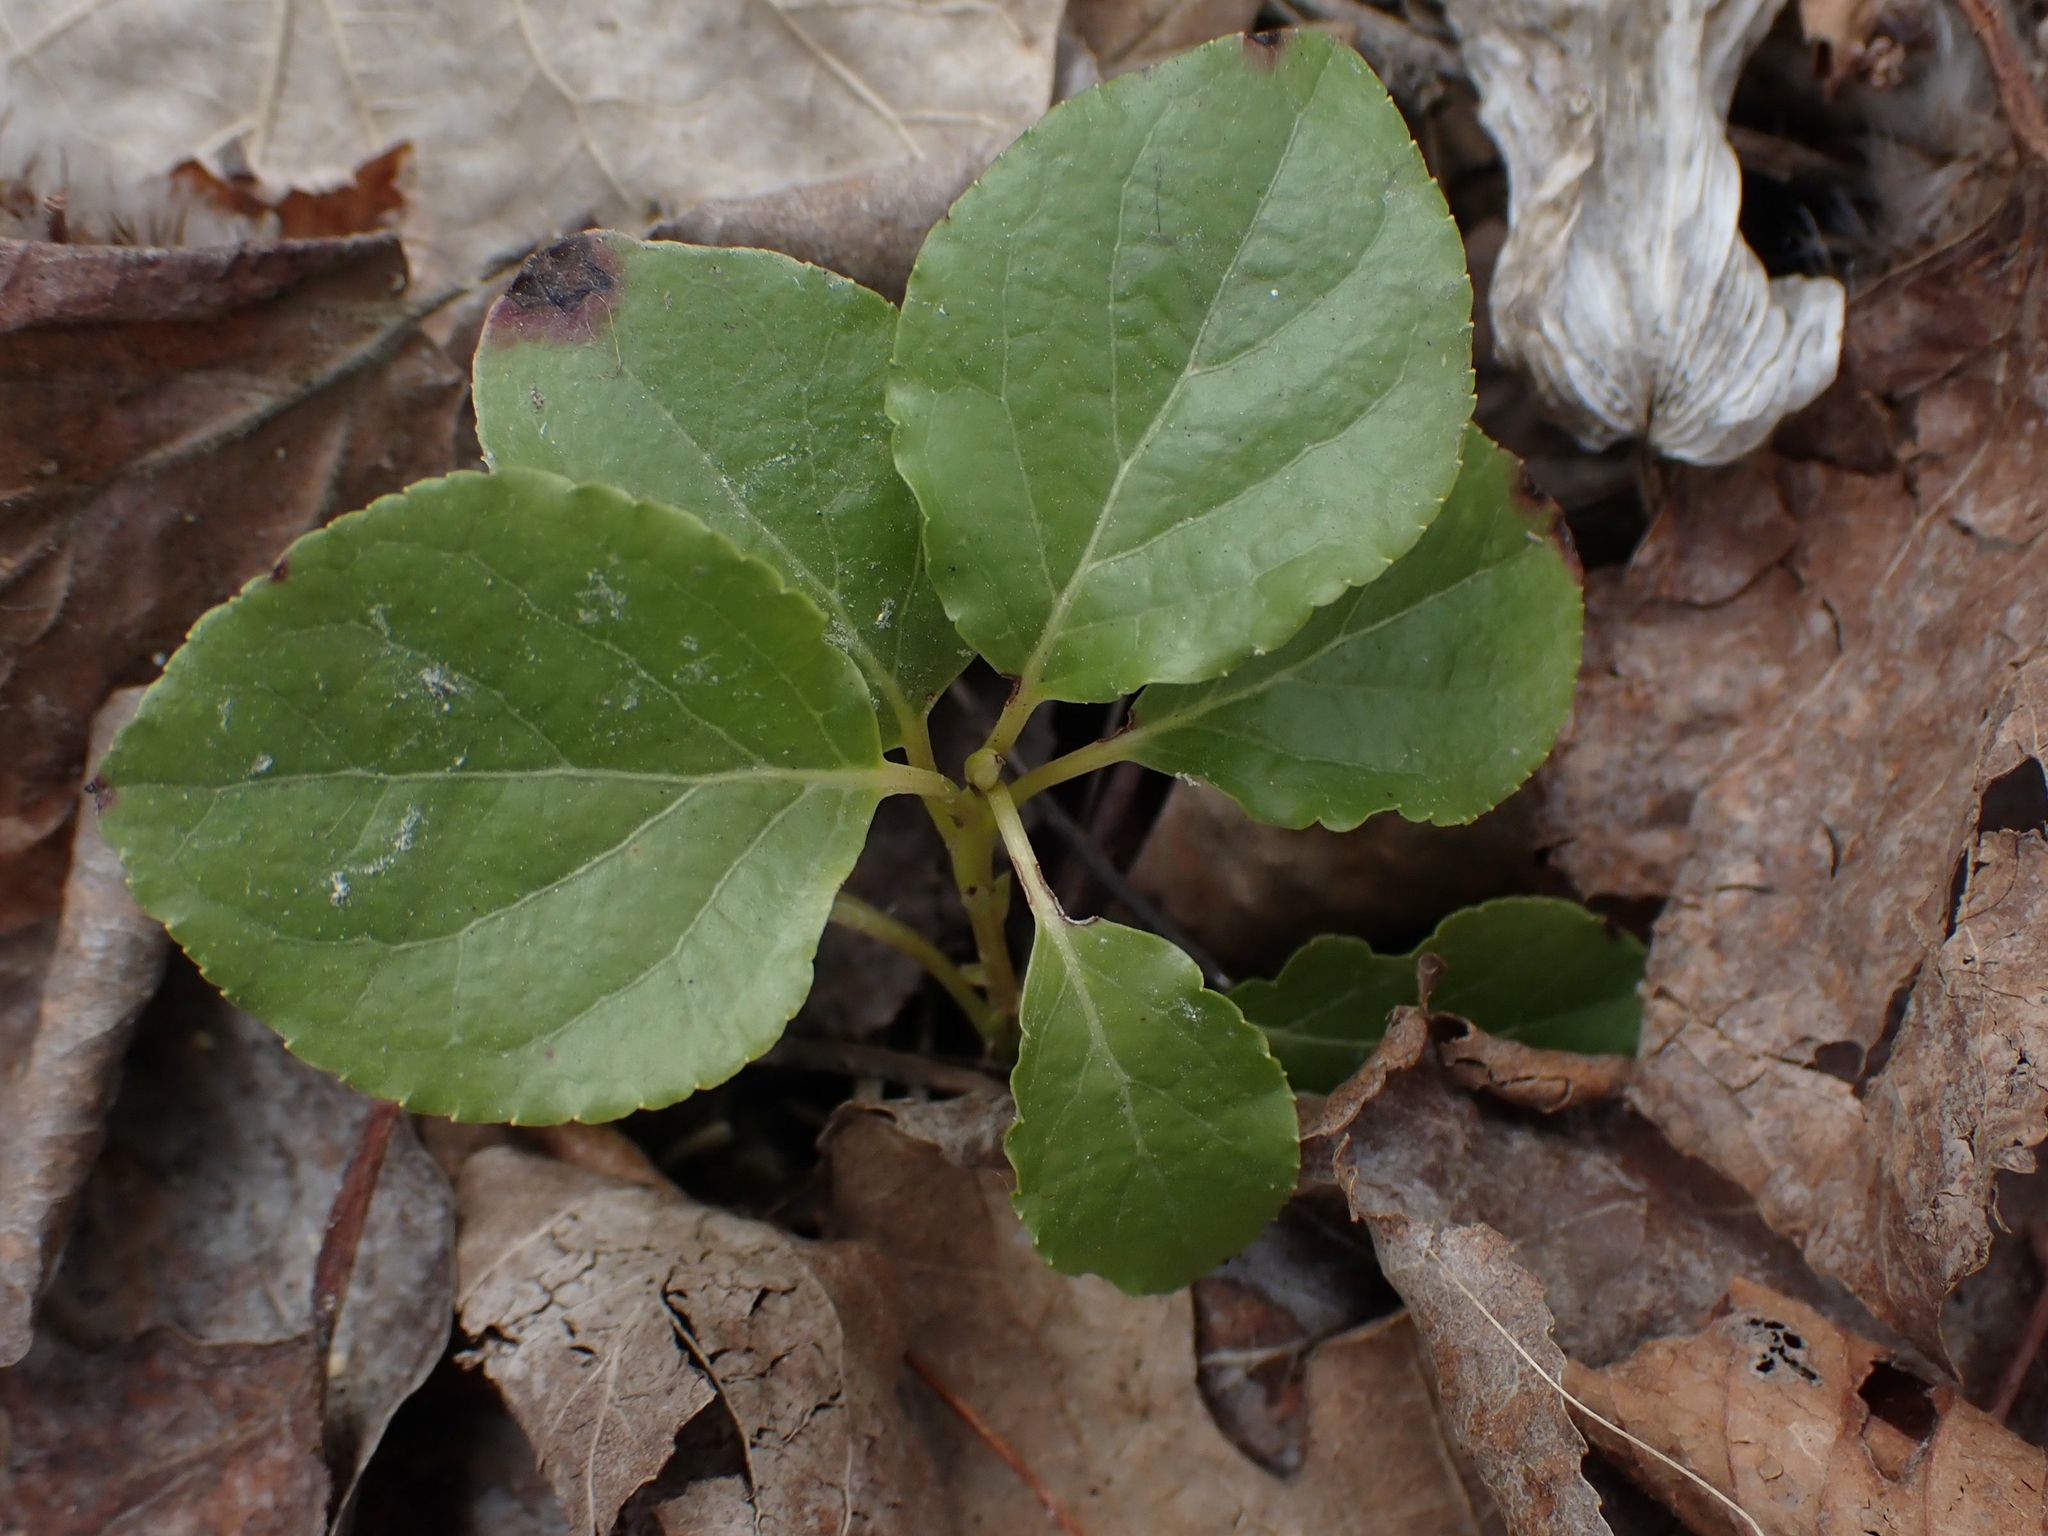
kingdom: Plantae
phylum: Tracheophyta
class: Magnoliopsida
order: Ericales
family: Ericaceae
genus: Orthilia
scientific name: Orthilia secunda
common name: One-sided orthilia
